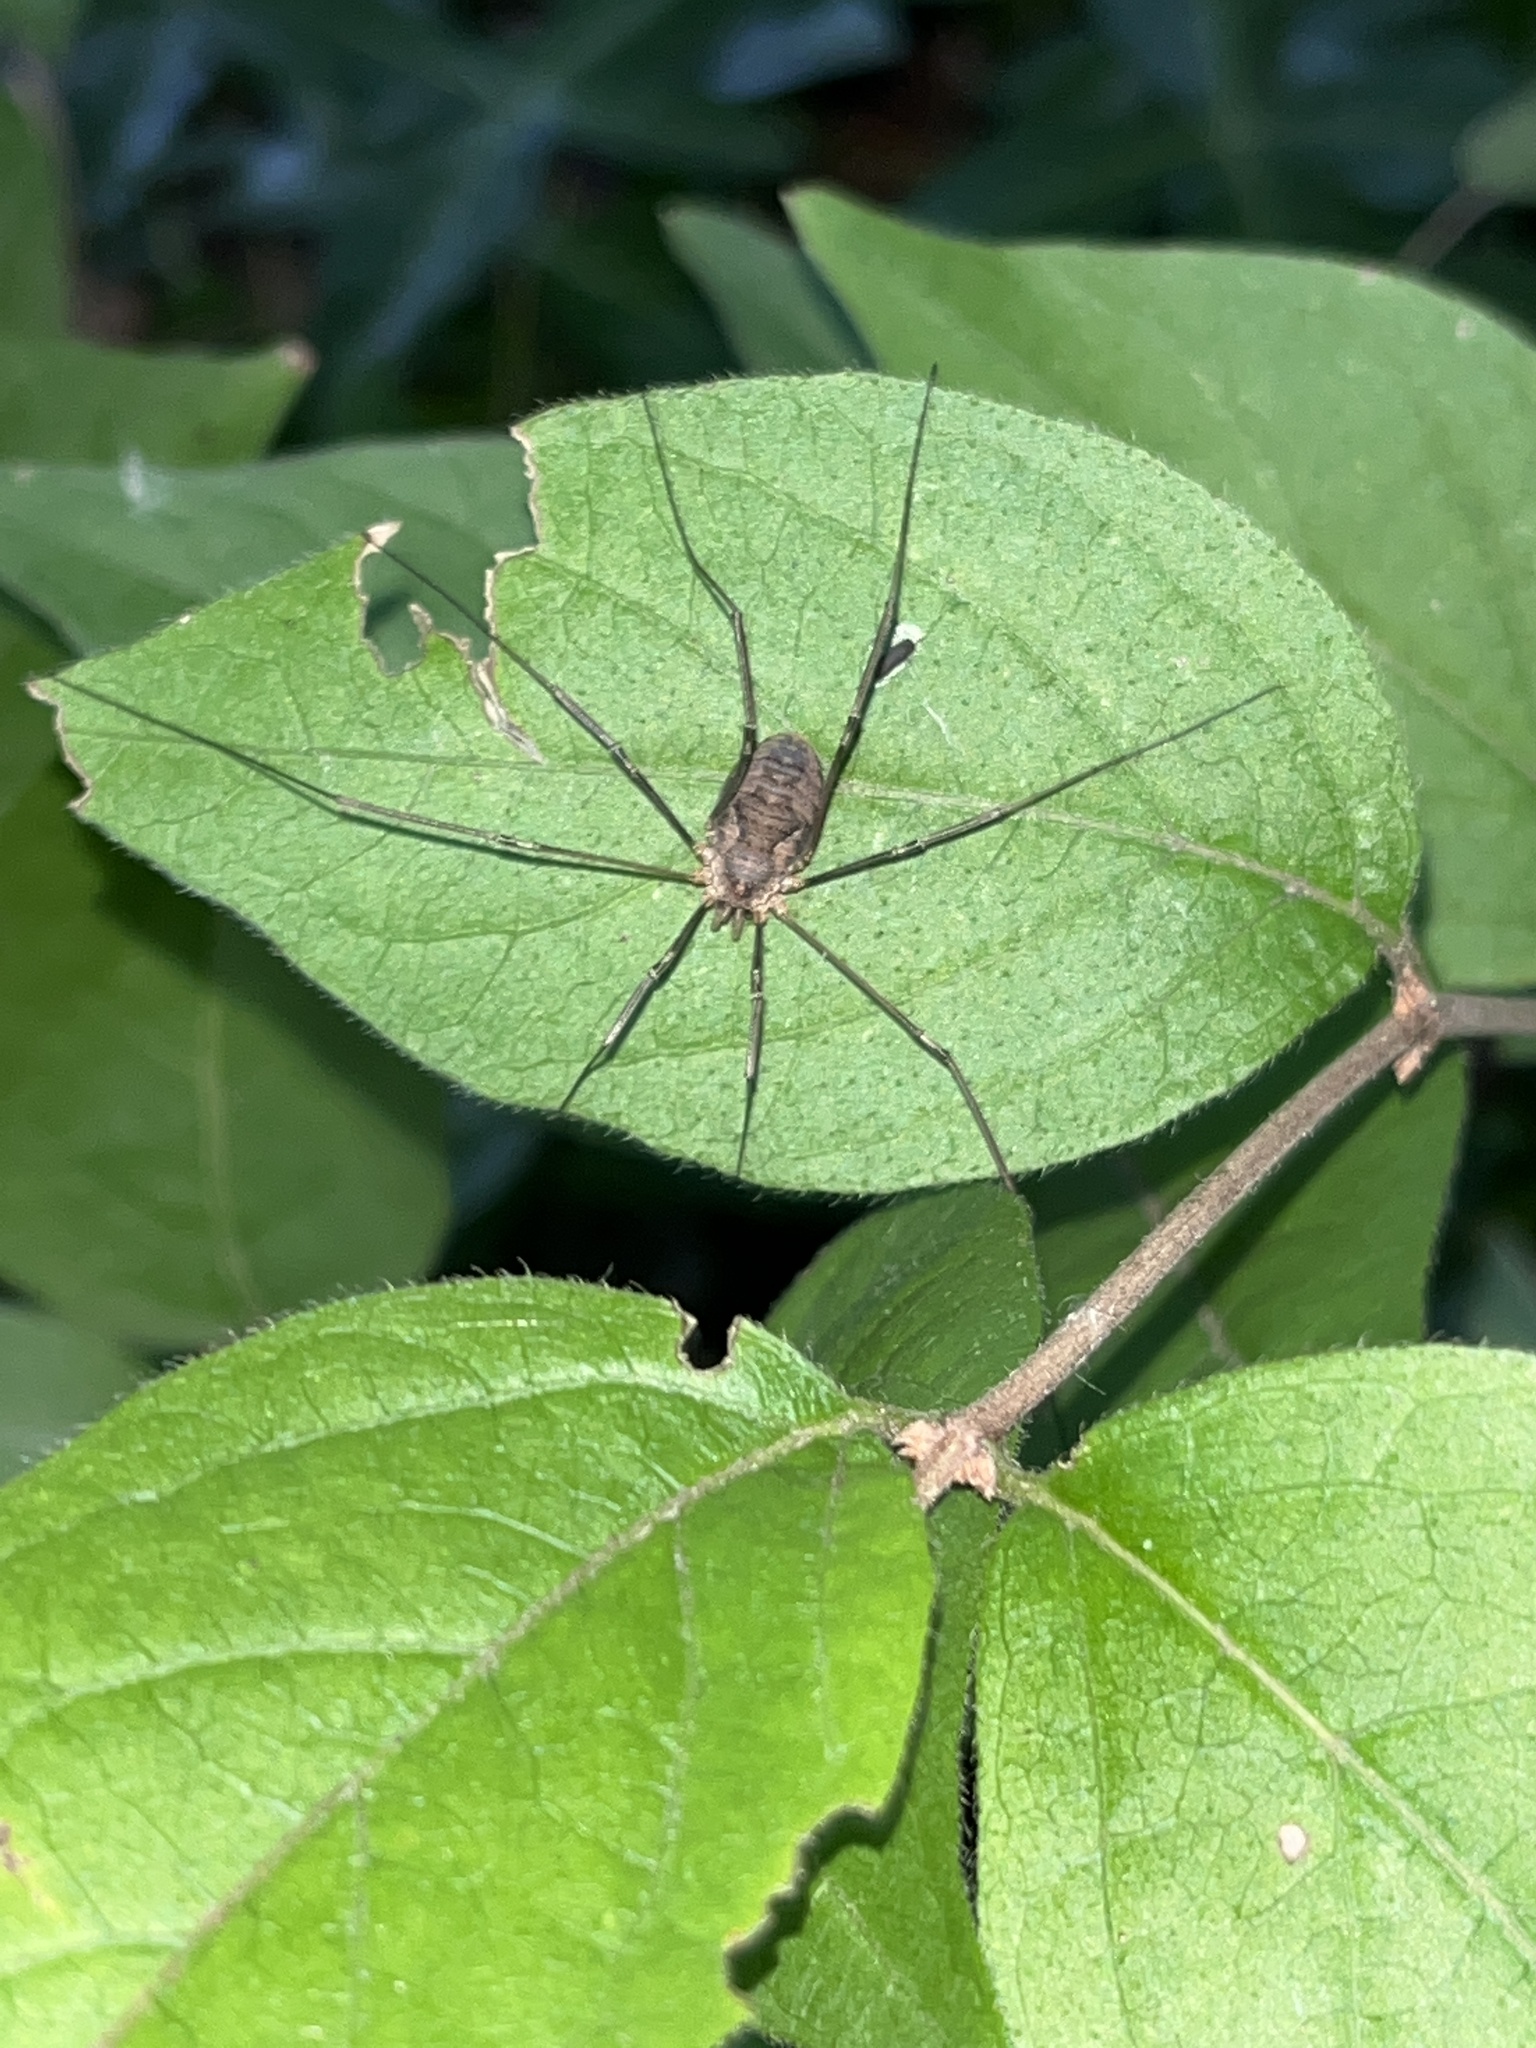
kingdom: Animalia
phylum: Arthropoda
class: Arachnida
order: Opiliones
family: Phalangiidae
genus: Phalangium
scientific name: Phalangium opilio
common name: Daddy longleg
